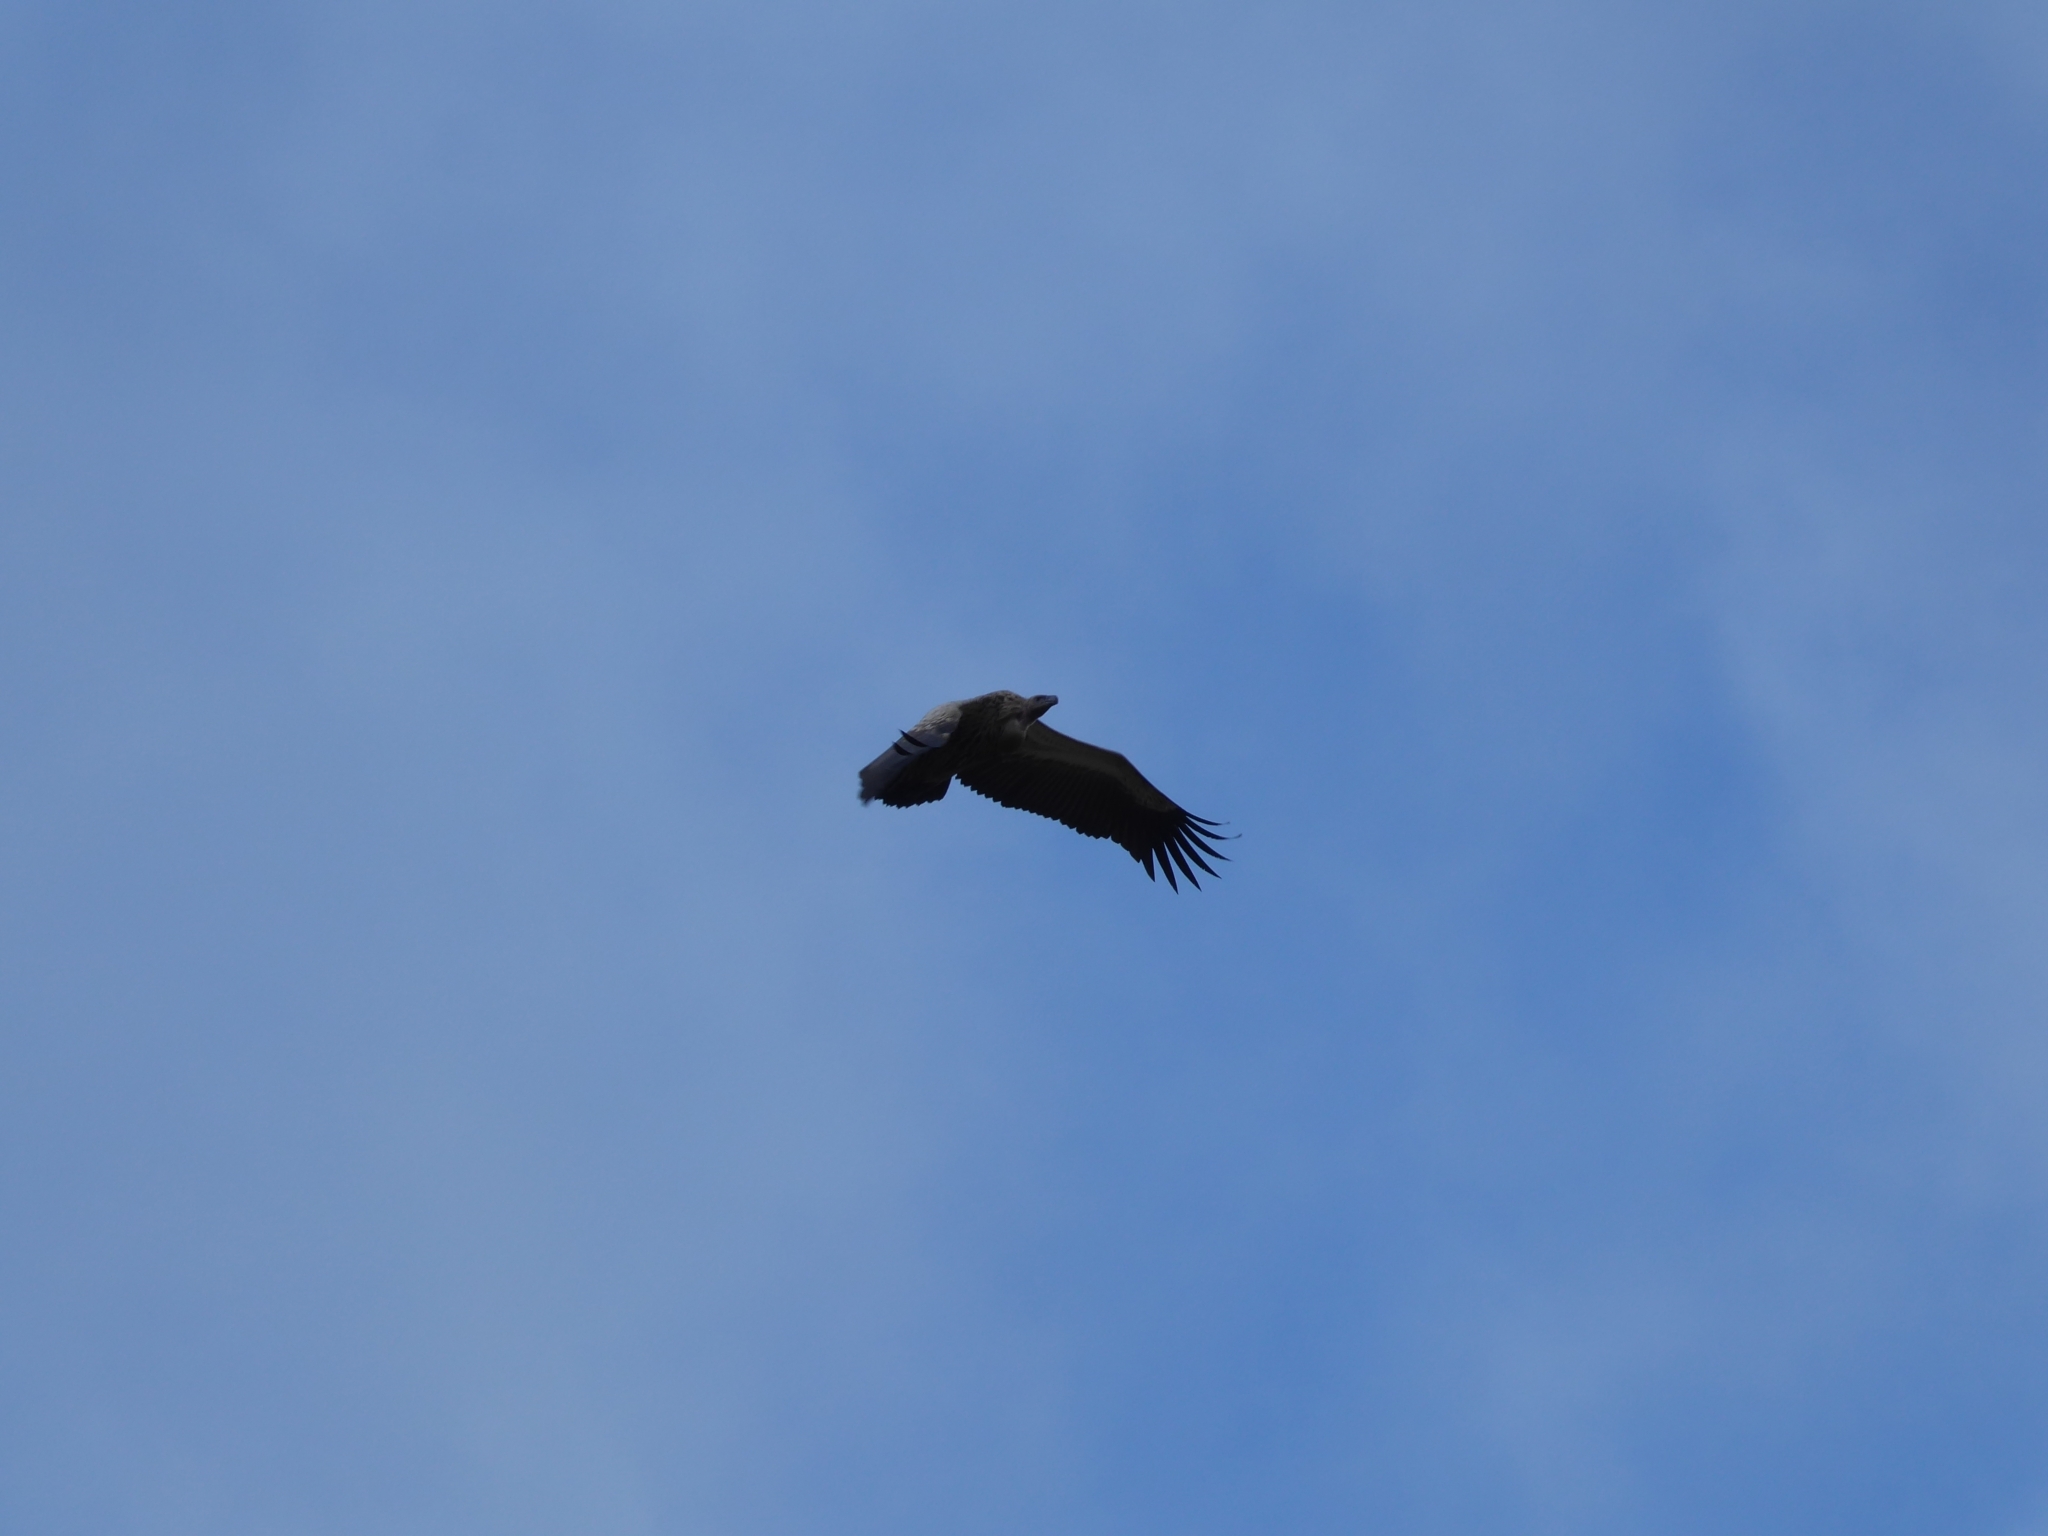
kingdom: Animalia
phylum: Chordata
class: Aves
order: Accipitriformes
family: Accipitridae
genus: Gyps
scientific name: Gyps coprotheres
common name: Cape vulture
